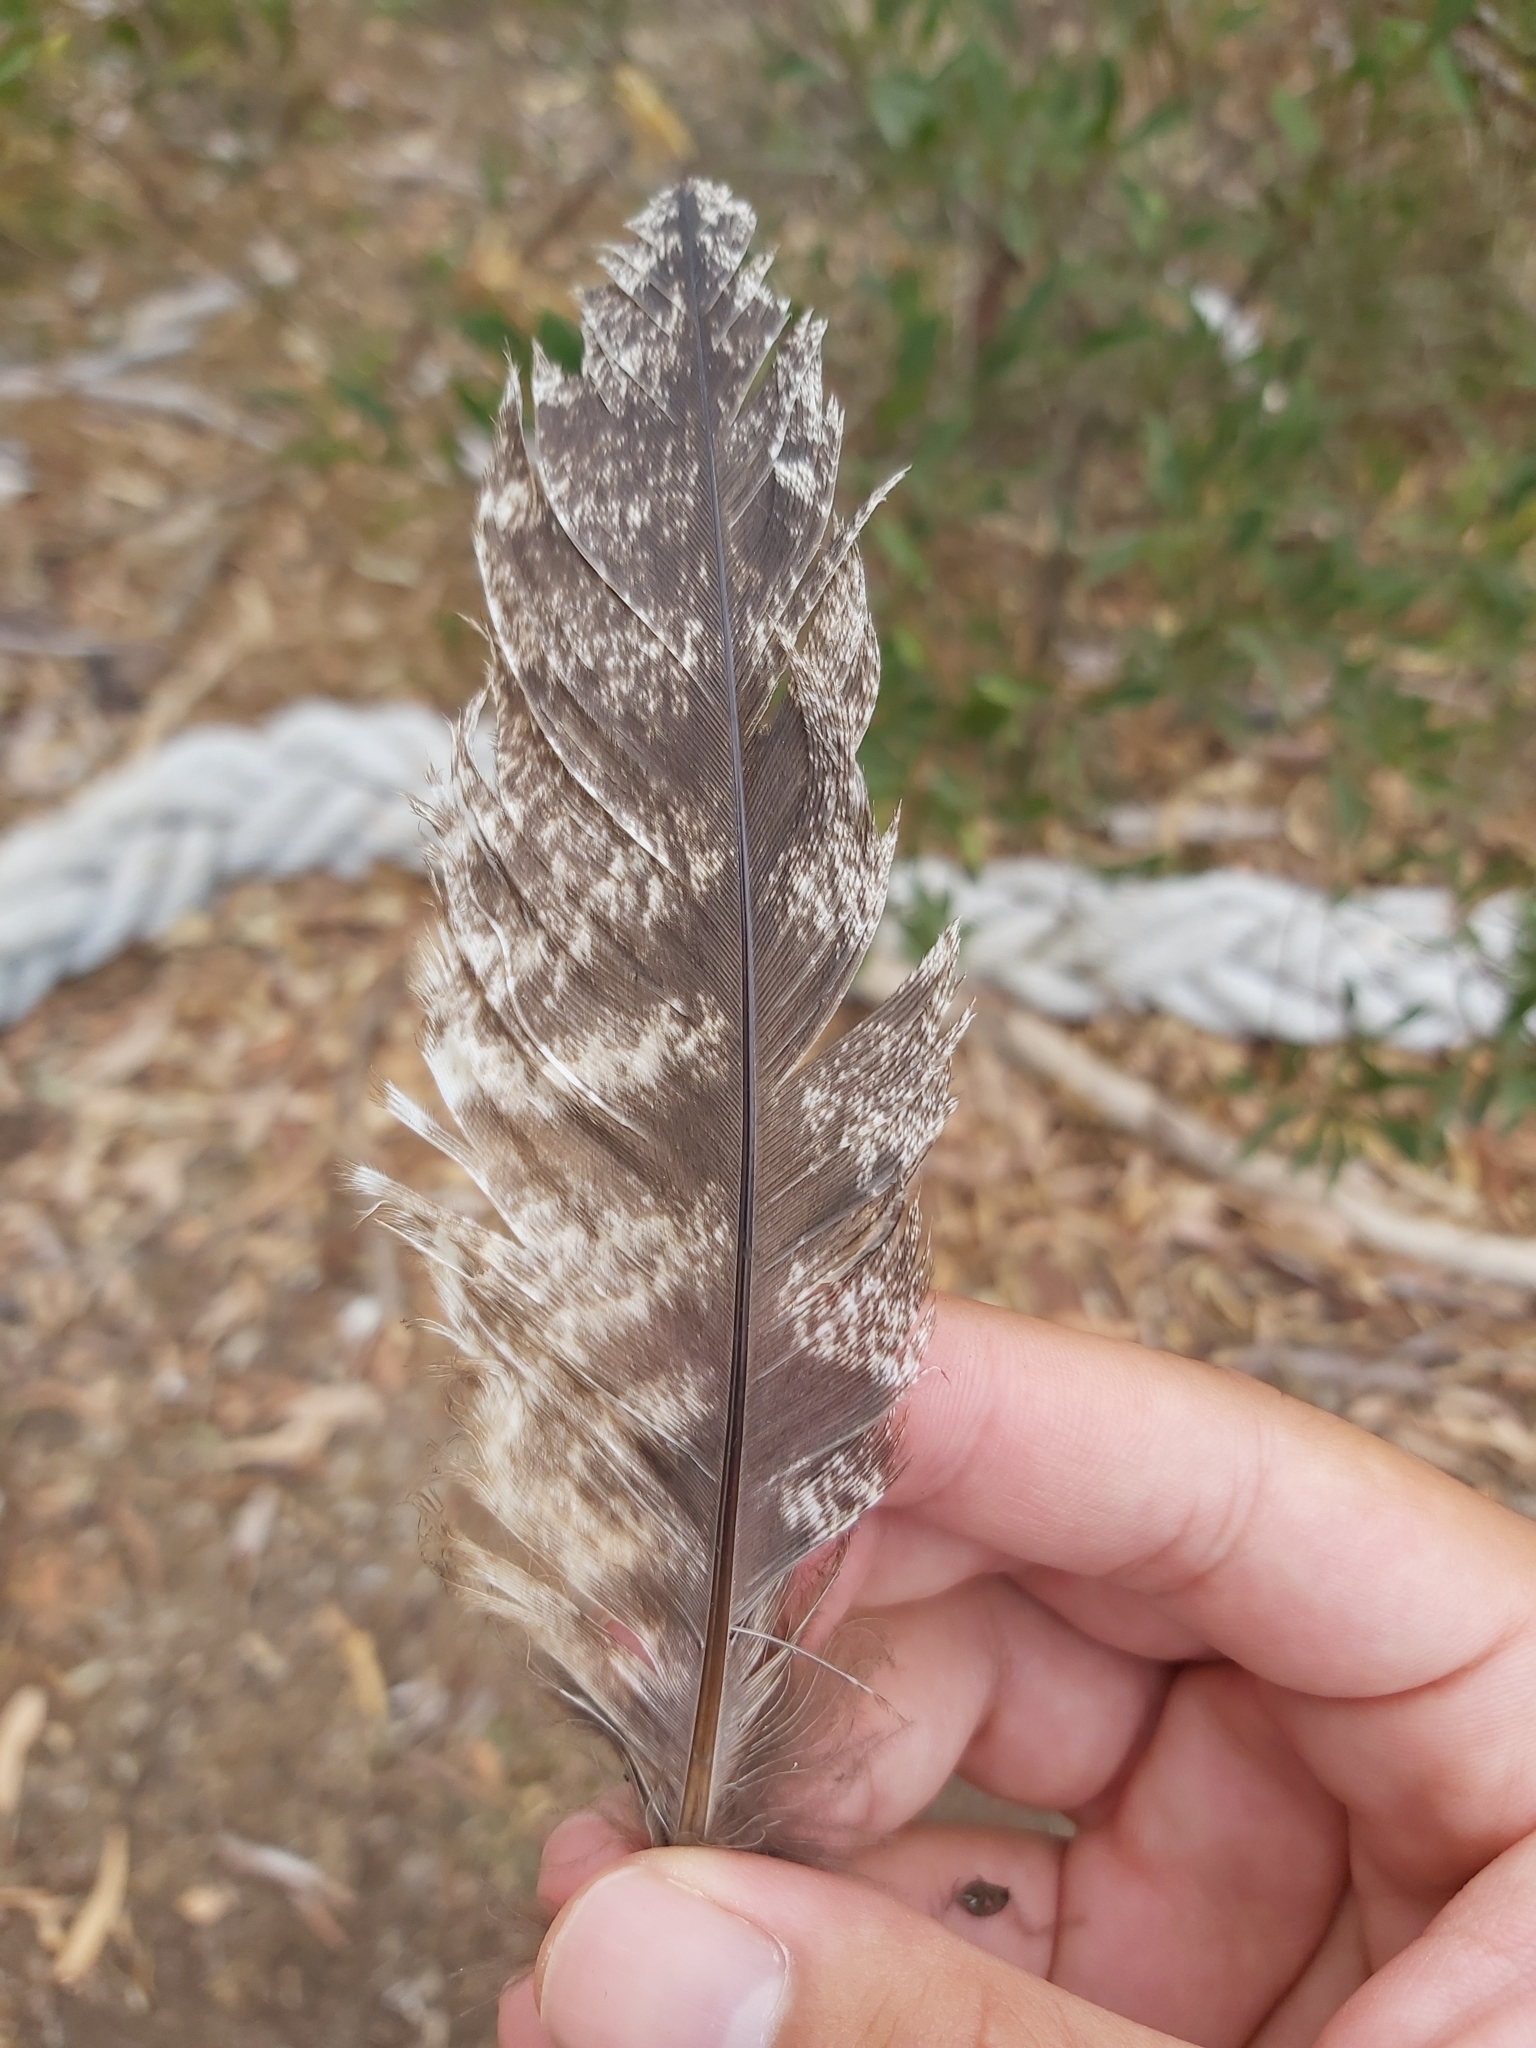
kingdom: Animalia
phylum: Chordata
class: Aves
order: Caprimulgiformes
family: Podargidae
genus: Podargus
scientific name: Podargus strigoides
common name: Tawny frogmouth
